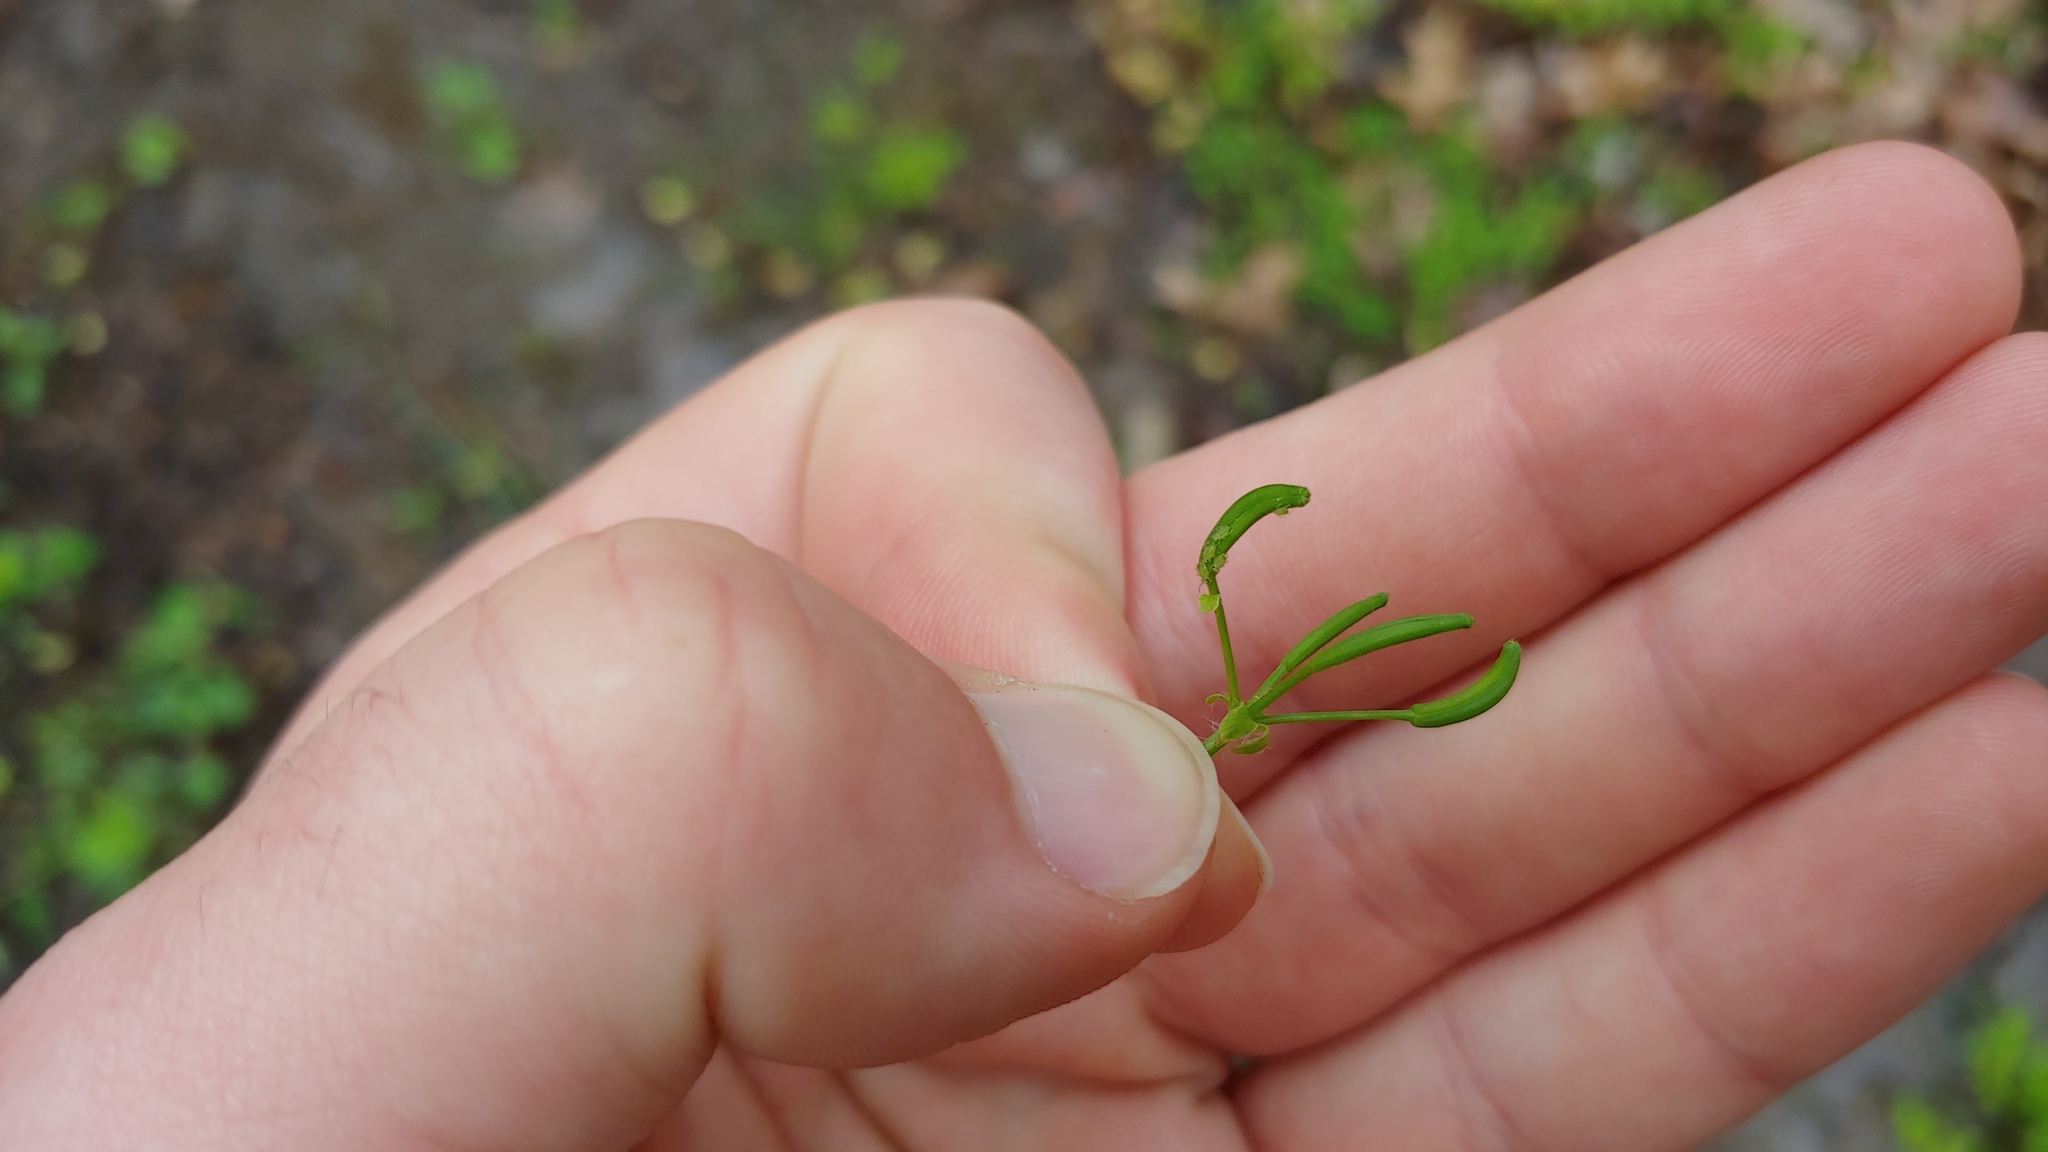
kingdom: Animalia
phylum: Arthropoda
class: Insecta
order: Hemiptera
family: Aphididae
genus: Cavariella
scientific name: Cavariella aegopodii
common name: Carrot-willow aphid
